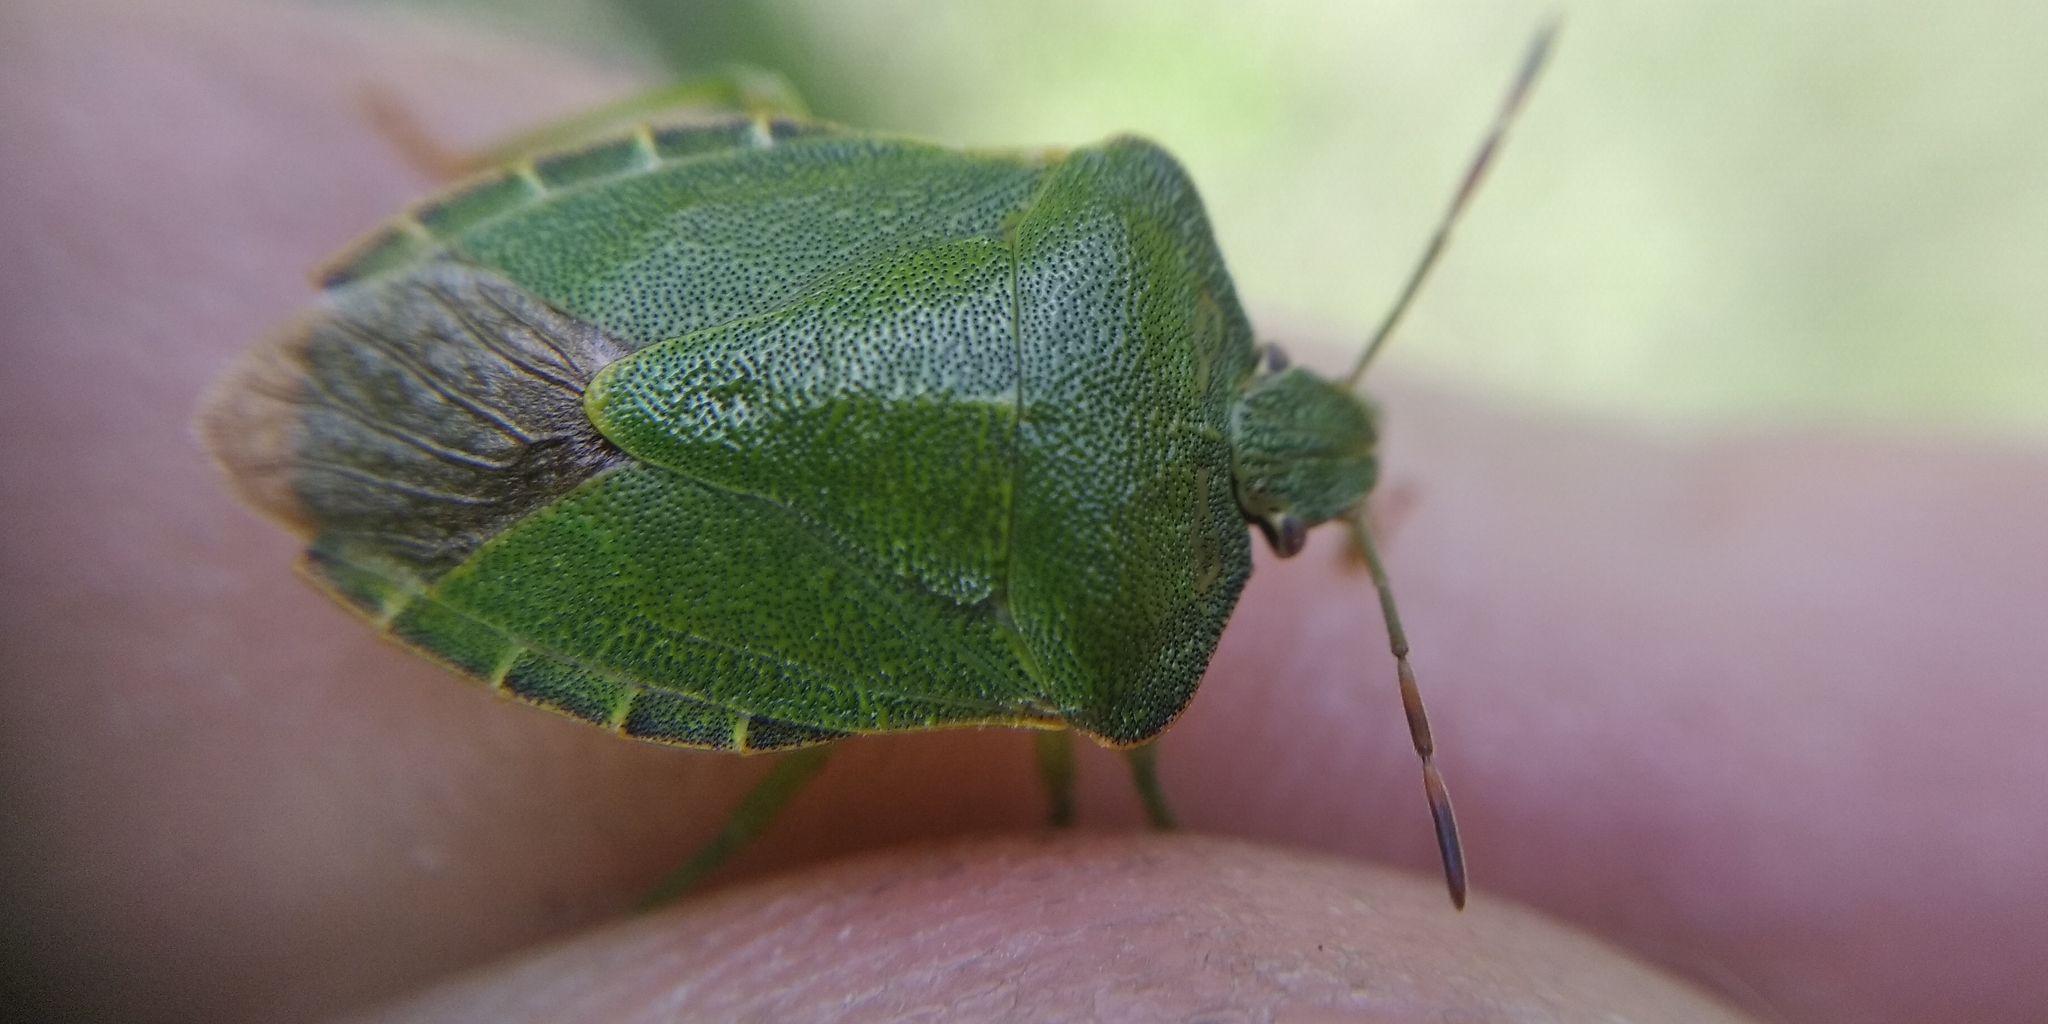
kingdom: Animalia
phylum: Arthropoda
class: Insecta
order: Hemiptera
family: Pentatomidae
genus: Palomena
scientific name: Palomena prasina
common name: Green shieldbug
